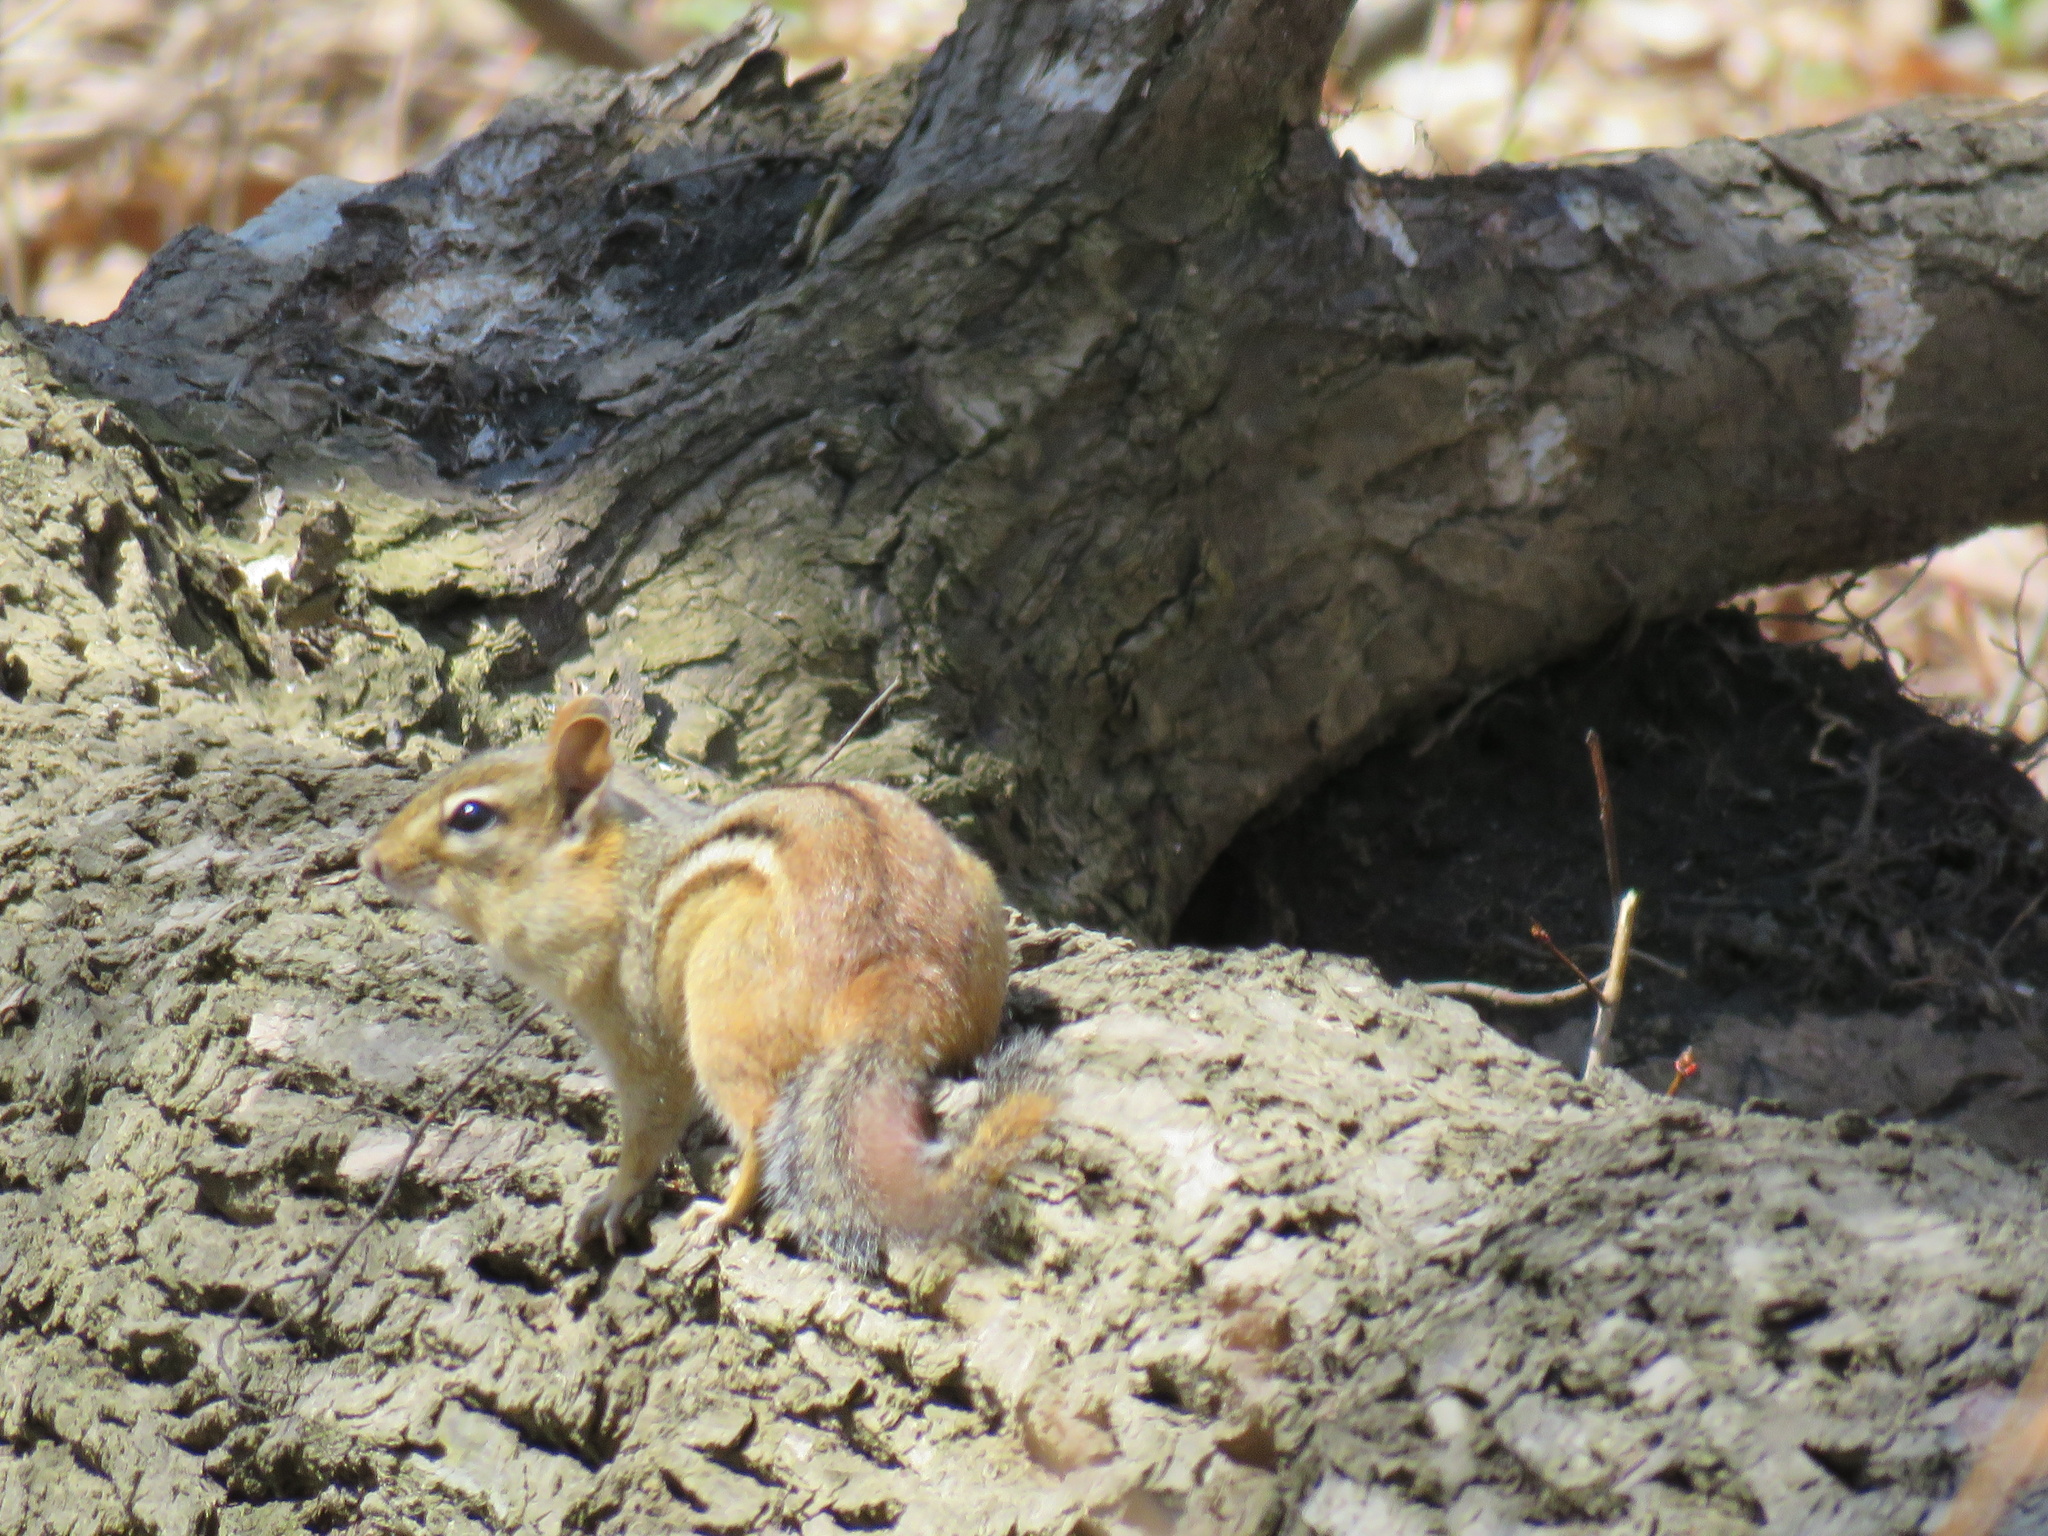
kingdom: Animalia
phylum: Chordata
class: Mammalia
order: Rodentia
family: Sciuridae
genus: Tamias
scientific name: Tamias striatus
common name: Eastern chipmunk
